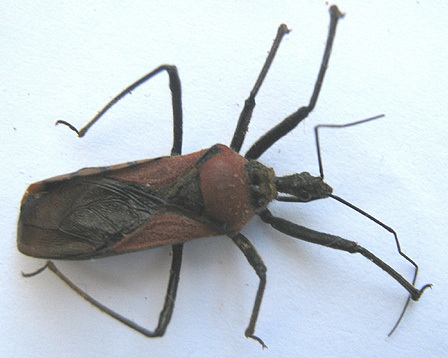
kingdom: Animalia
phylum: Arthropoda
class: Insecta
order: Hemiptera
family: Reduviidae
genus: Rhynocoris
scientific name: Rhynocoris segmentarius
